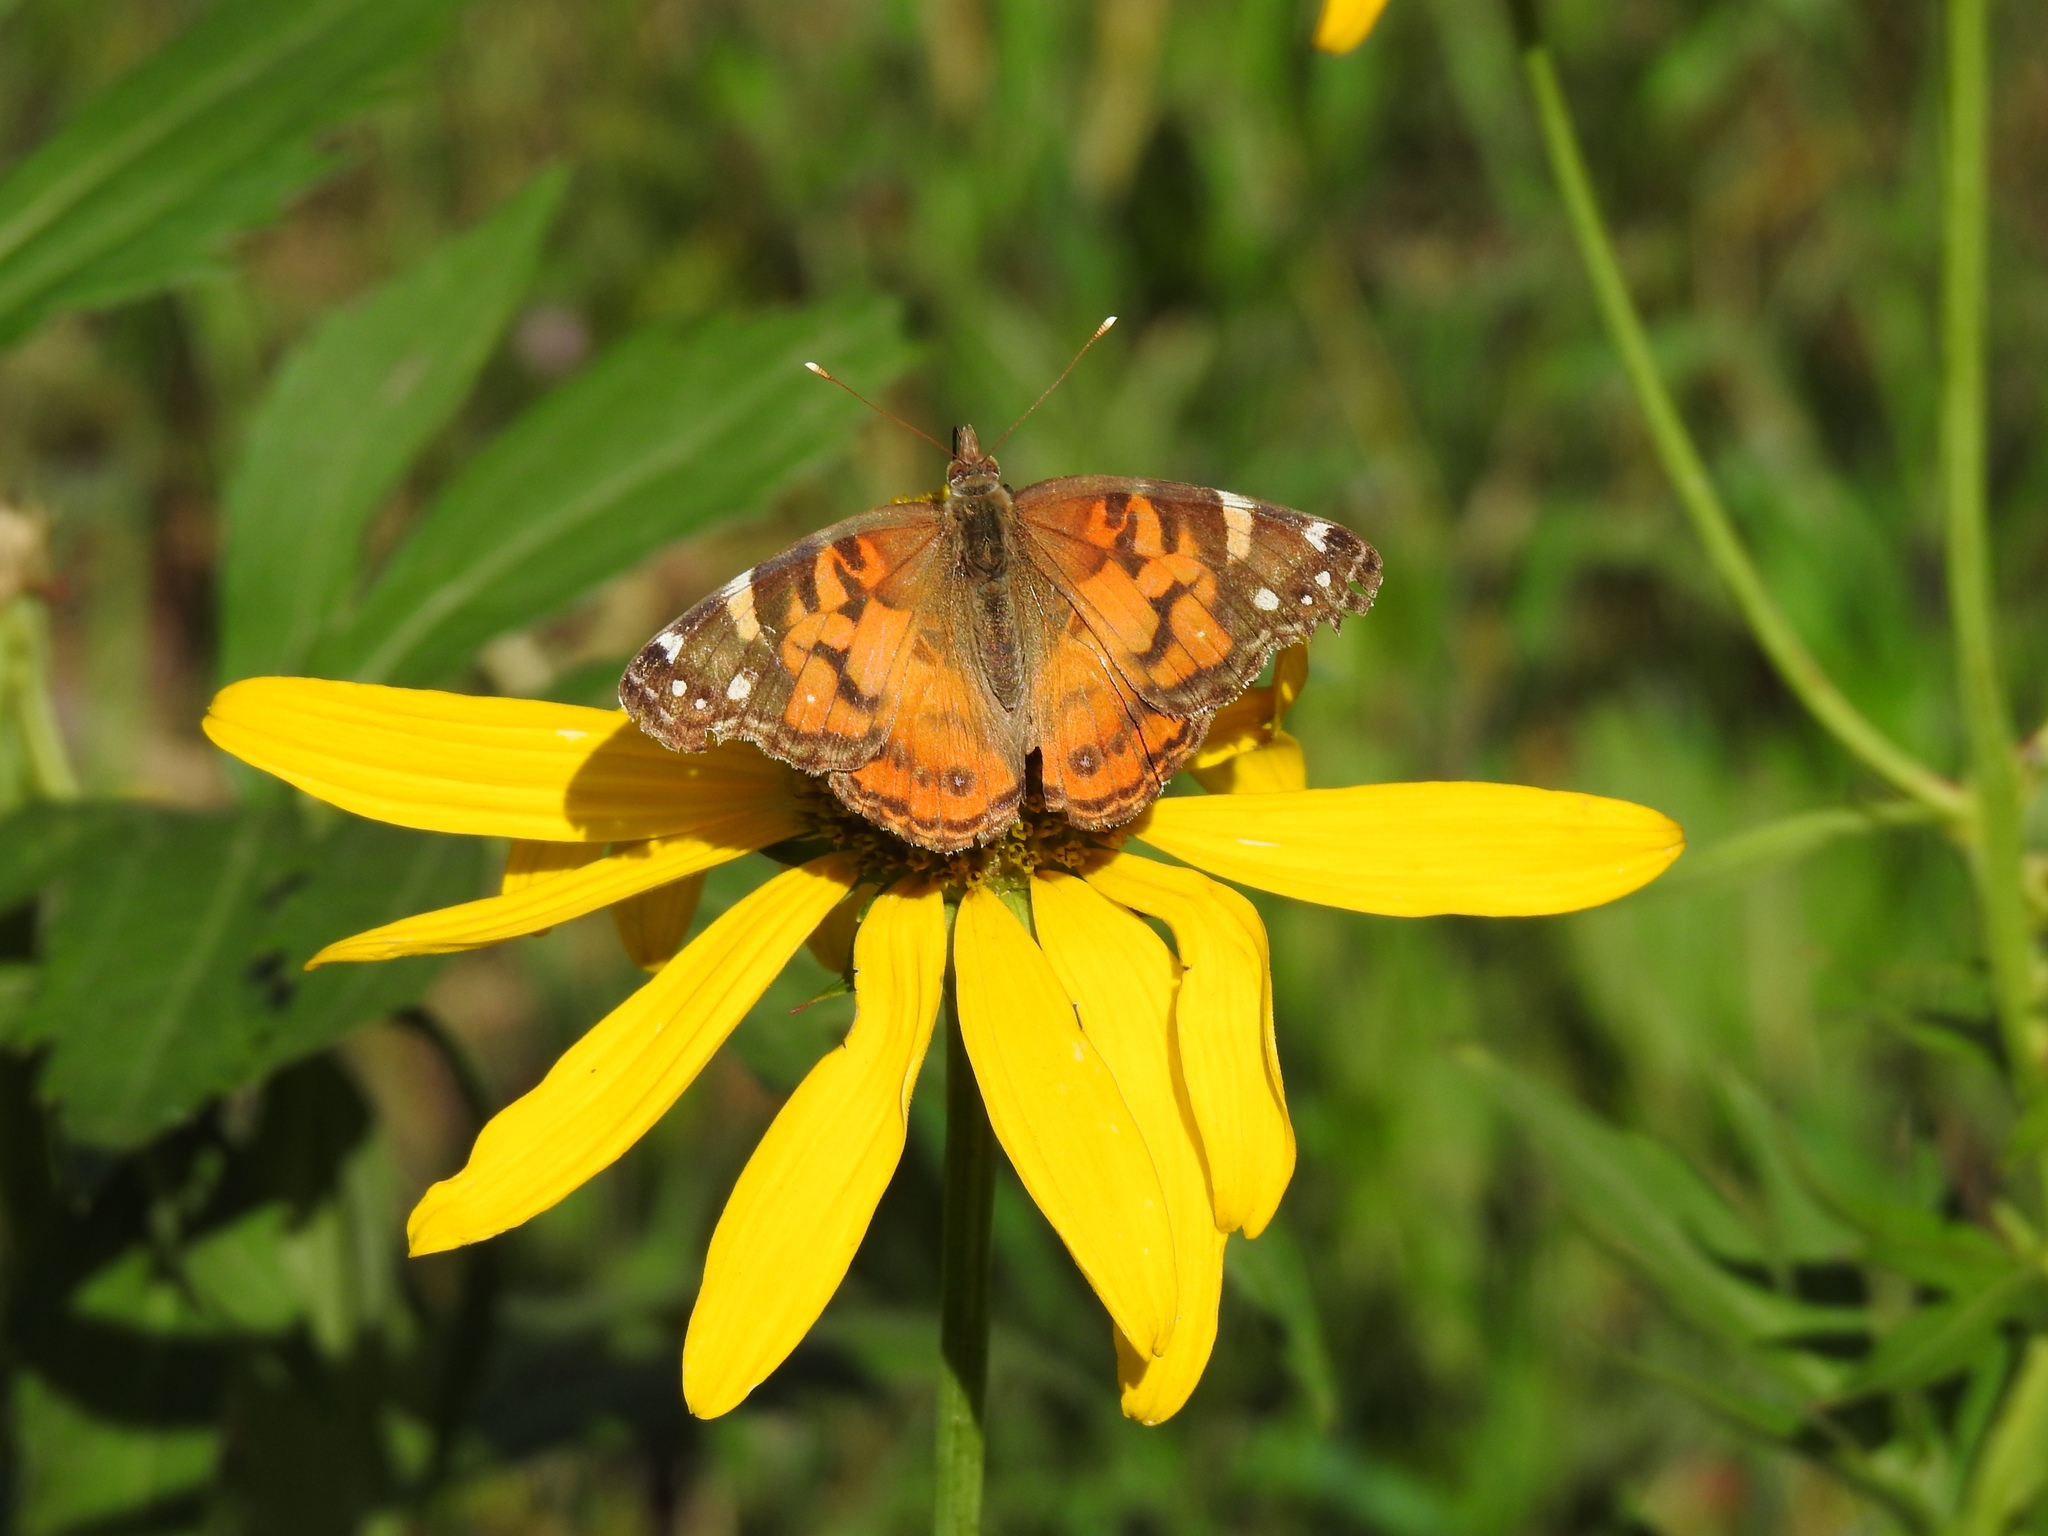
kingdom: Animalia
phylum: Arthropoda
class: Insecta
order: Lepidoptera
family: Nymphalidae
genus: Vanessa
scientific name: Vanessa virginiensis
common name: American lady
